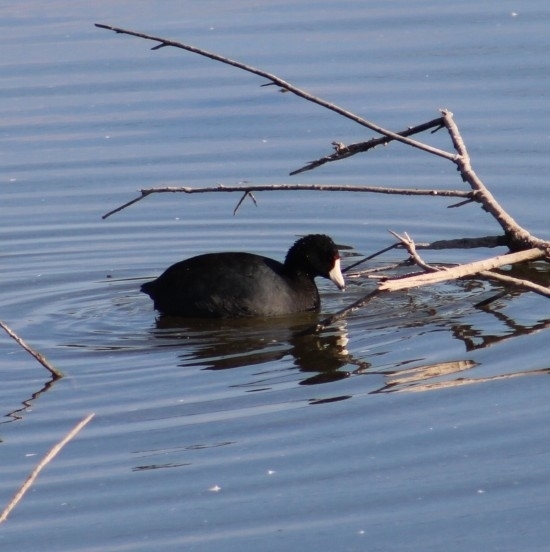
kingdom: Animalia
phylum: Chordata
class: Aves
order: Gruiformes
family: Rallidae
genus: Fulica
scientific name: Fulica americana
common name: American coot
